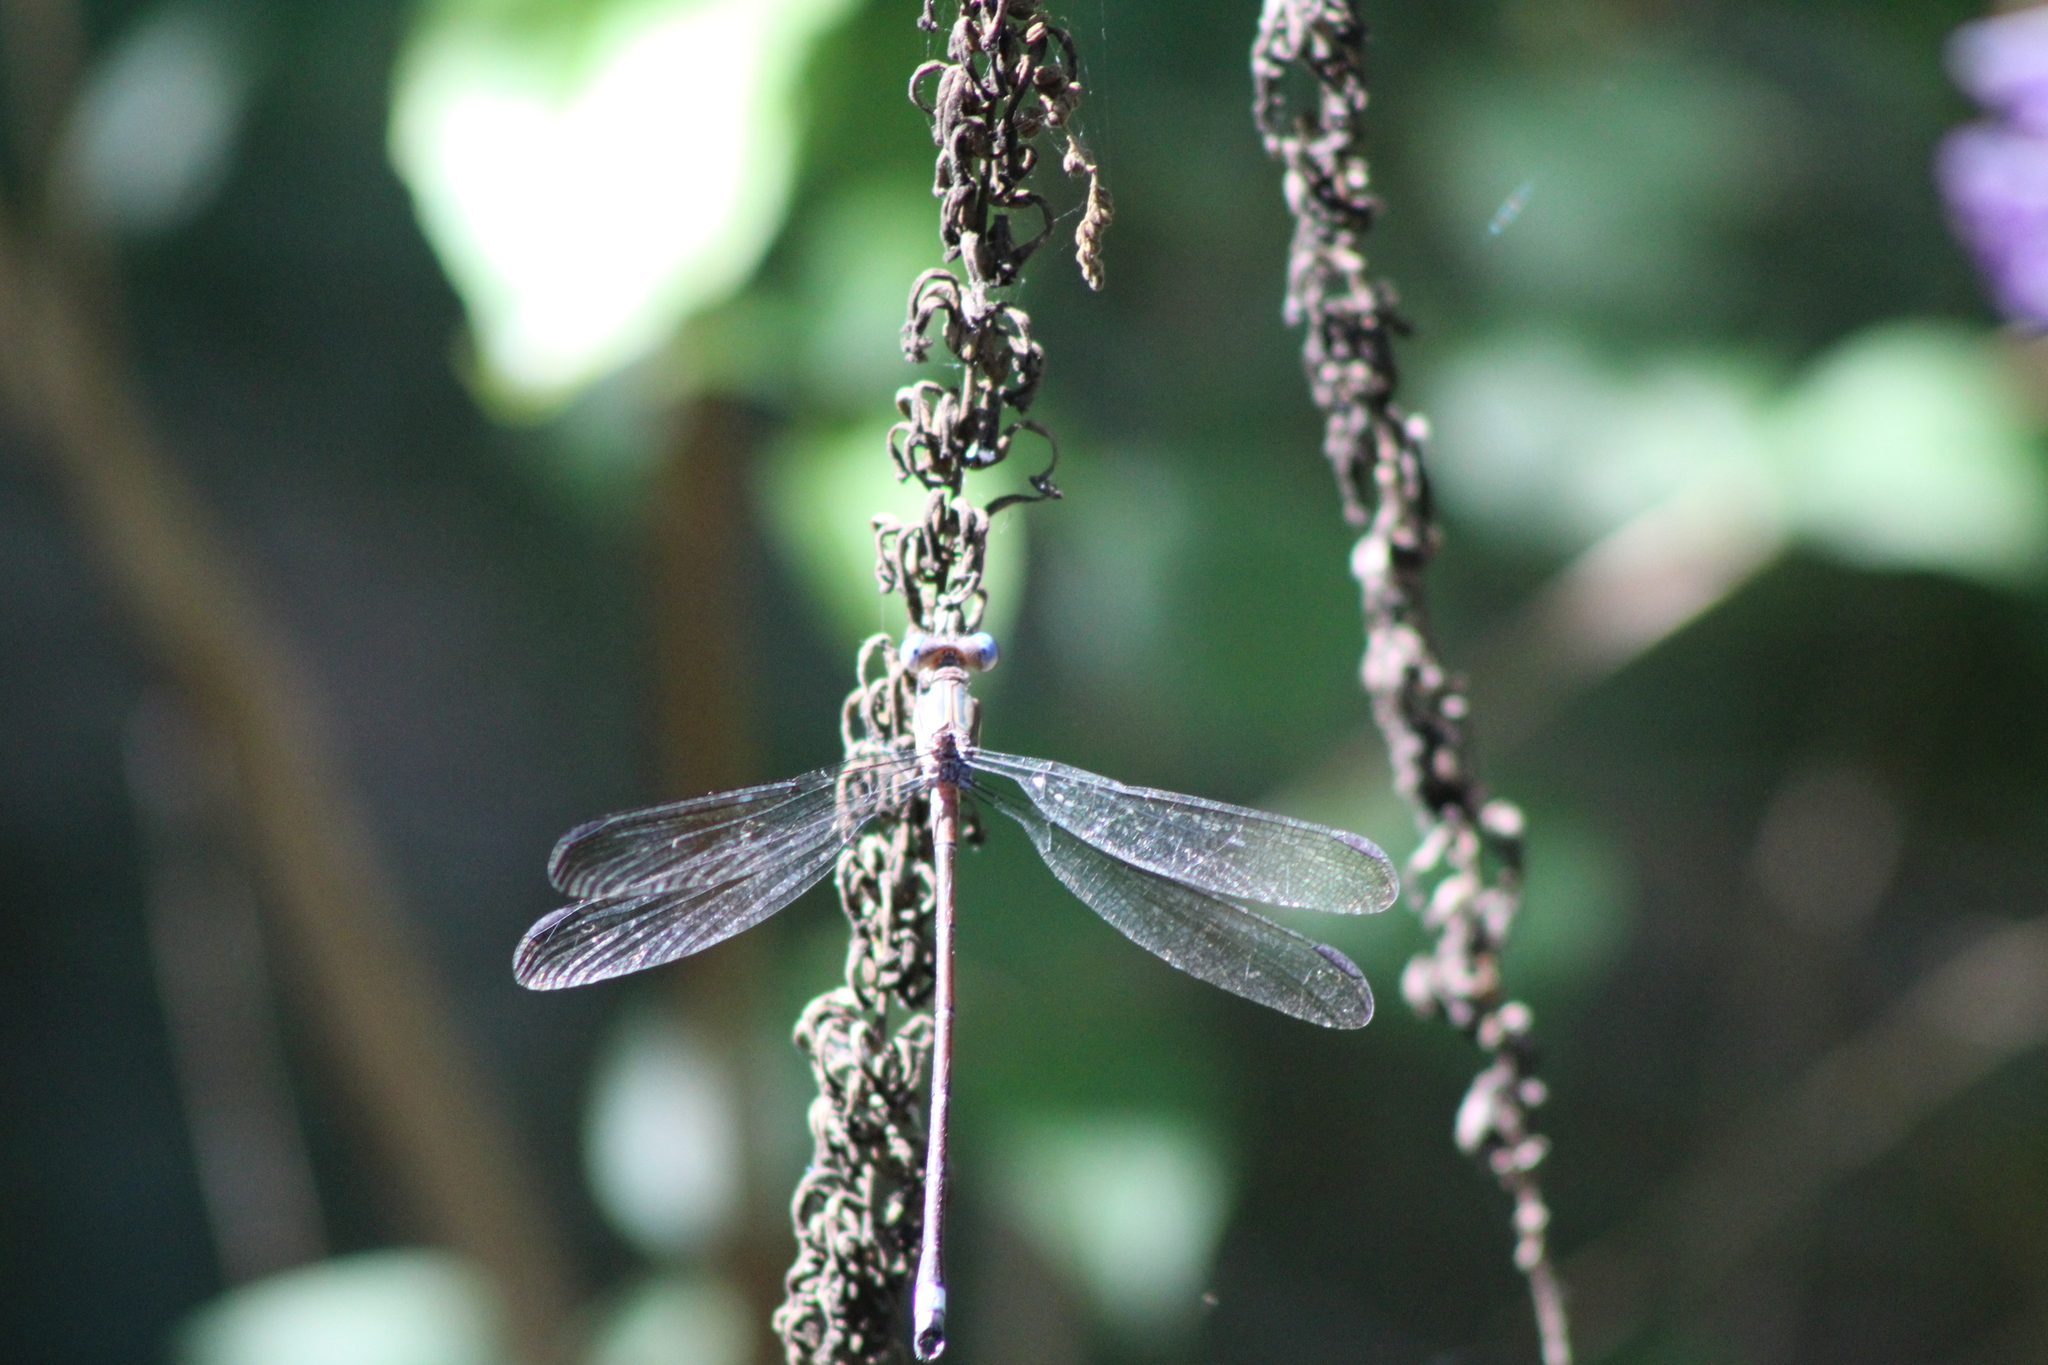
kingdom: Animalia
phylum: Arthropoda
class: Insecta
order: Odonata
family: Lestidae
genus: Archilestes
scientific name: Archilestes grandis
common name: Great spreadwing
